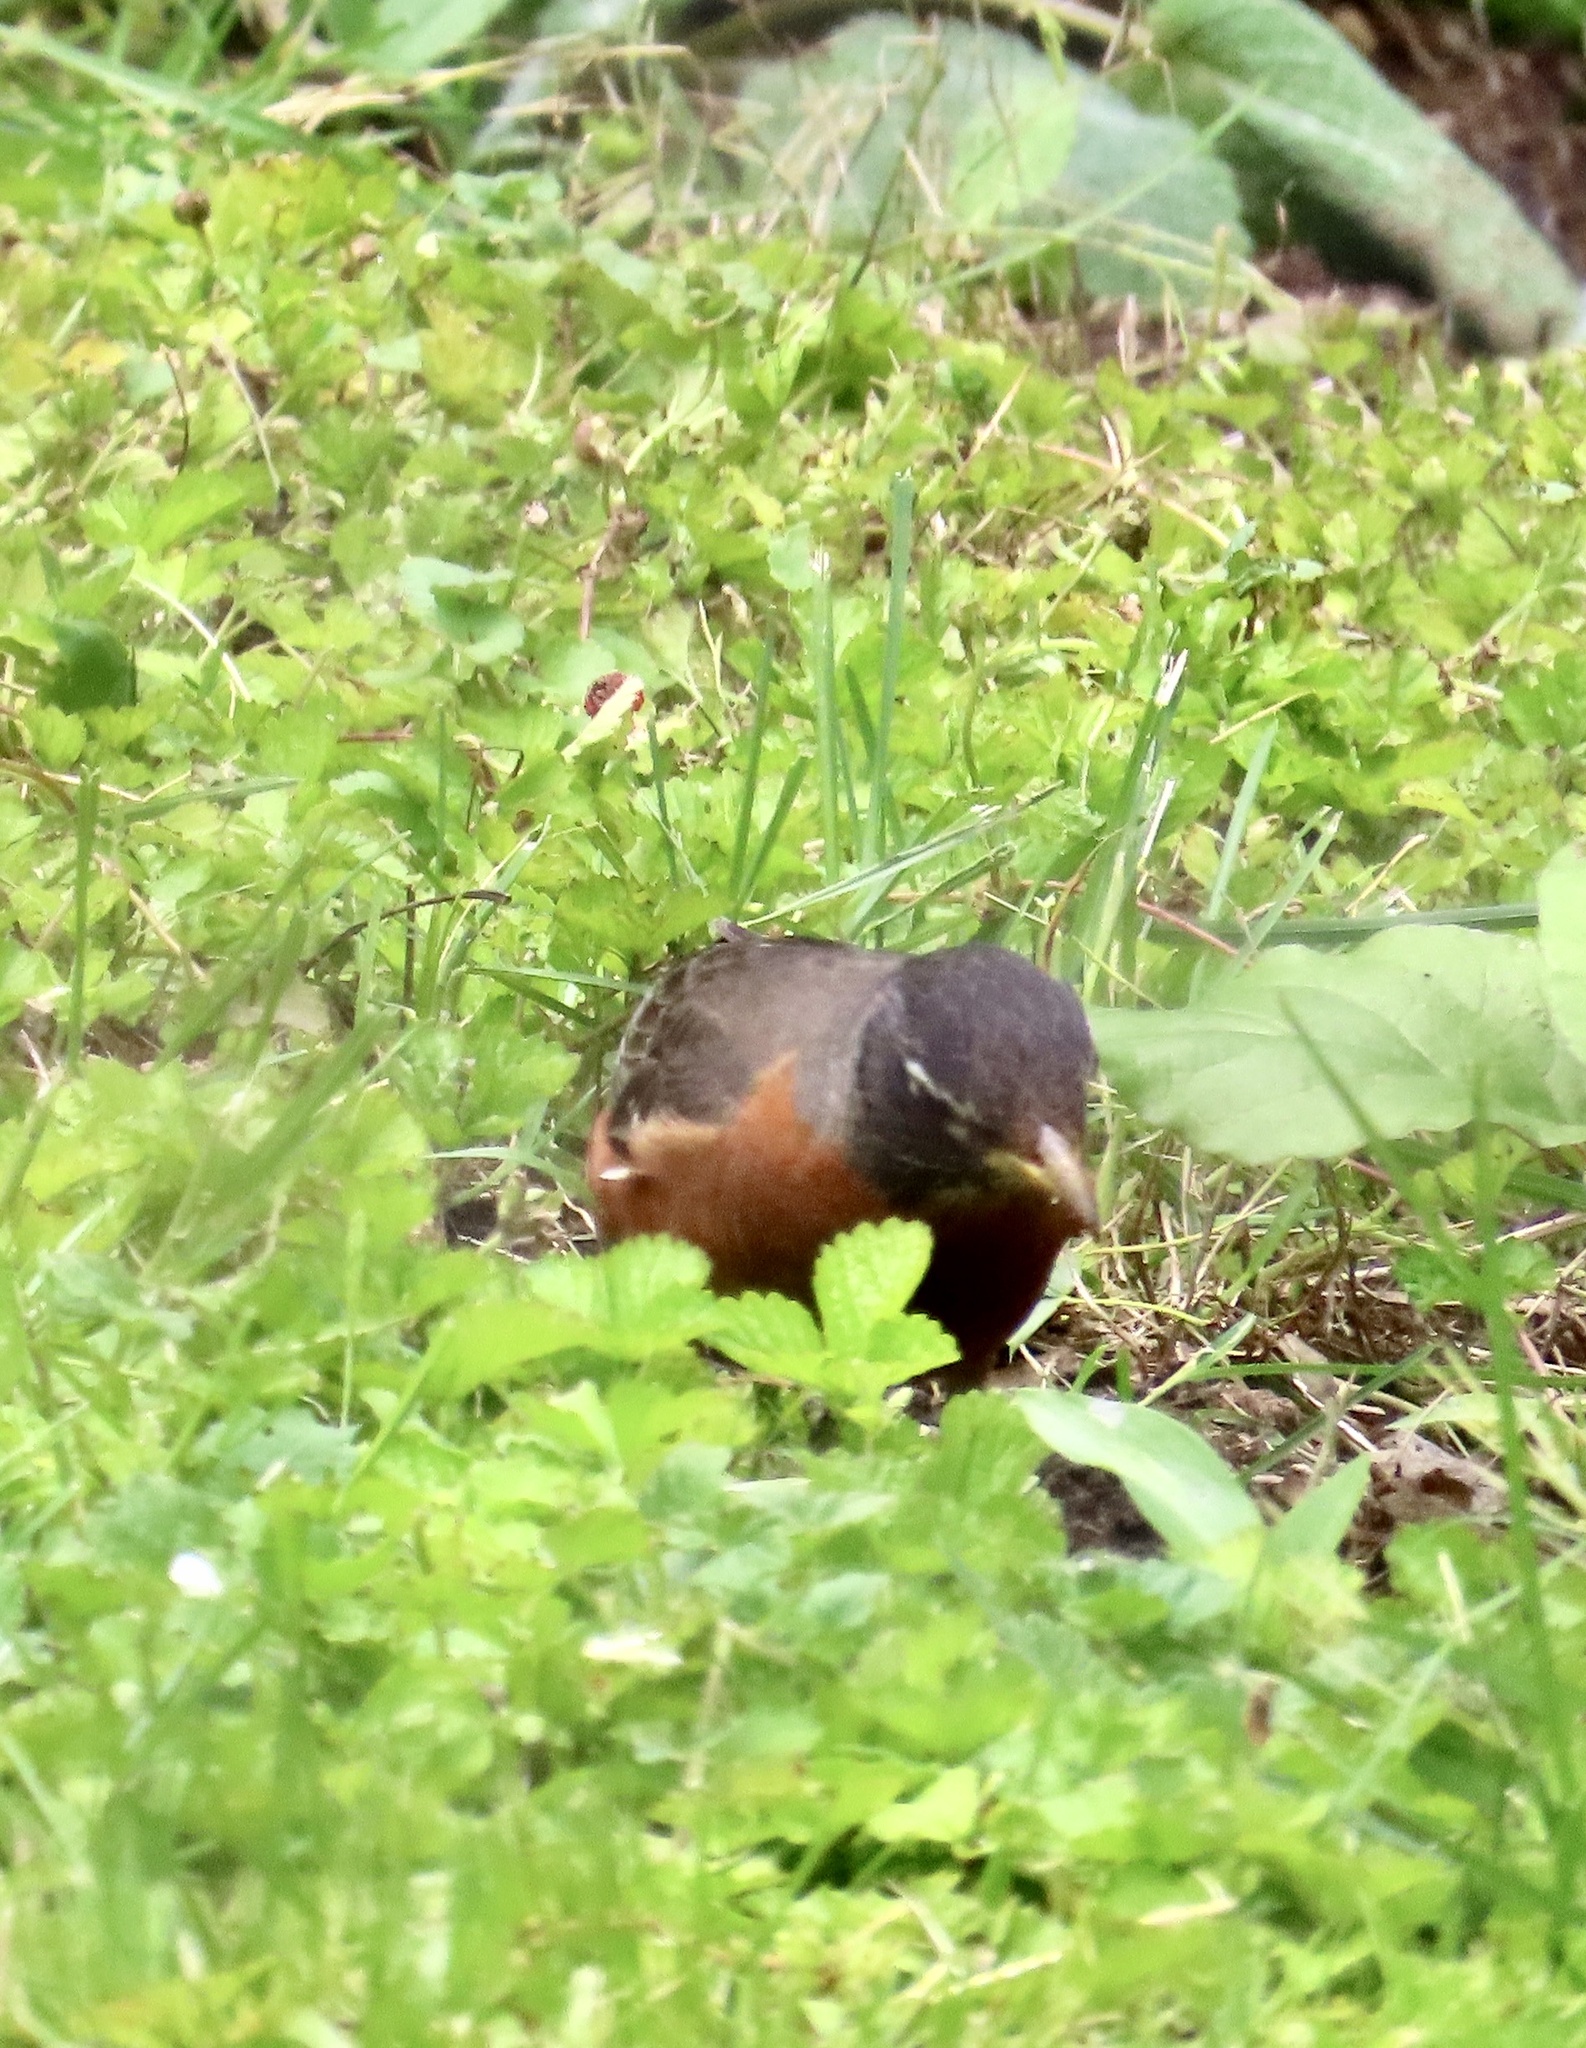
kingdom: Animalia
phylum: Chordata
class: Aves
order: Passeriformes
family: Turdidae
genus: Turdus
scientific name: Turdus migratorius
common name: American robin
